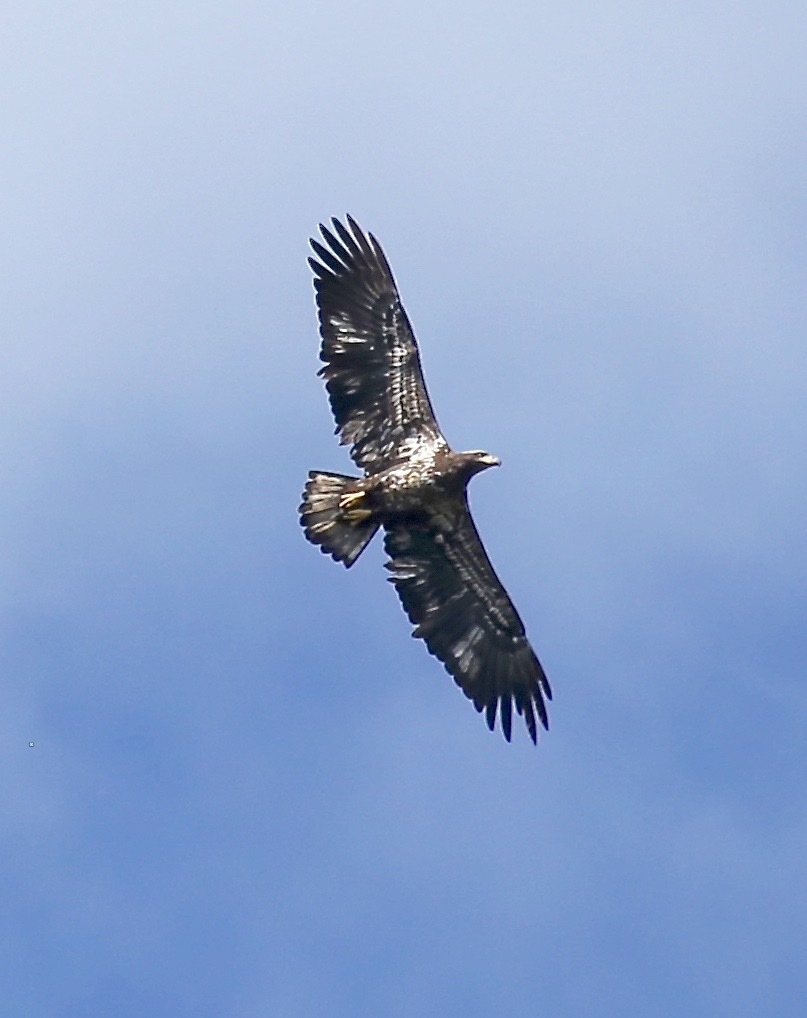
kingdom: Animalia
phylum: Chordata
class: Aves
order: Accipitriformes
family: Accipitridae
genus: Haliaeetus
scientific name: Haliaeetus leucocephalus
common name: Bald eagle
